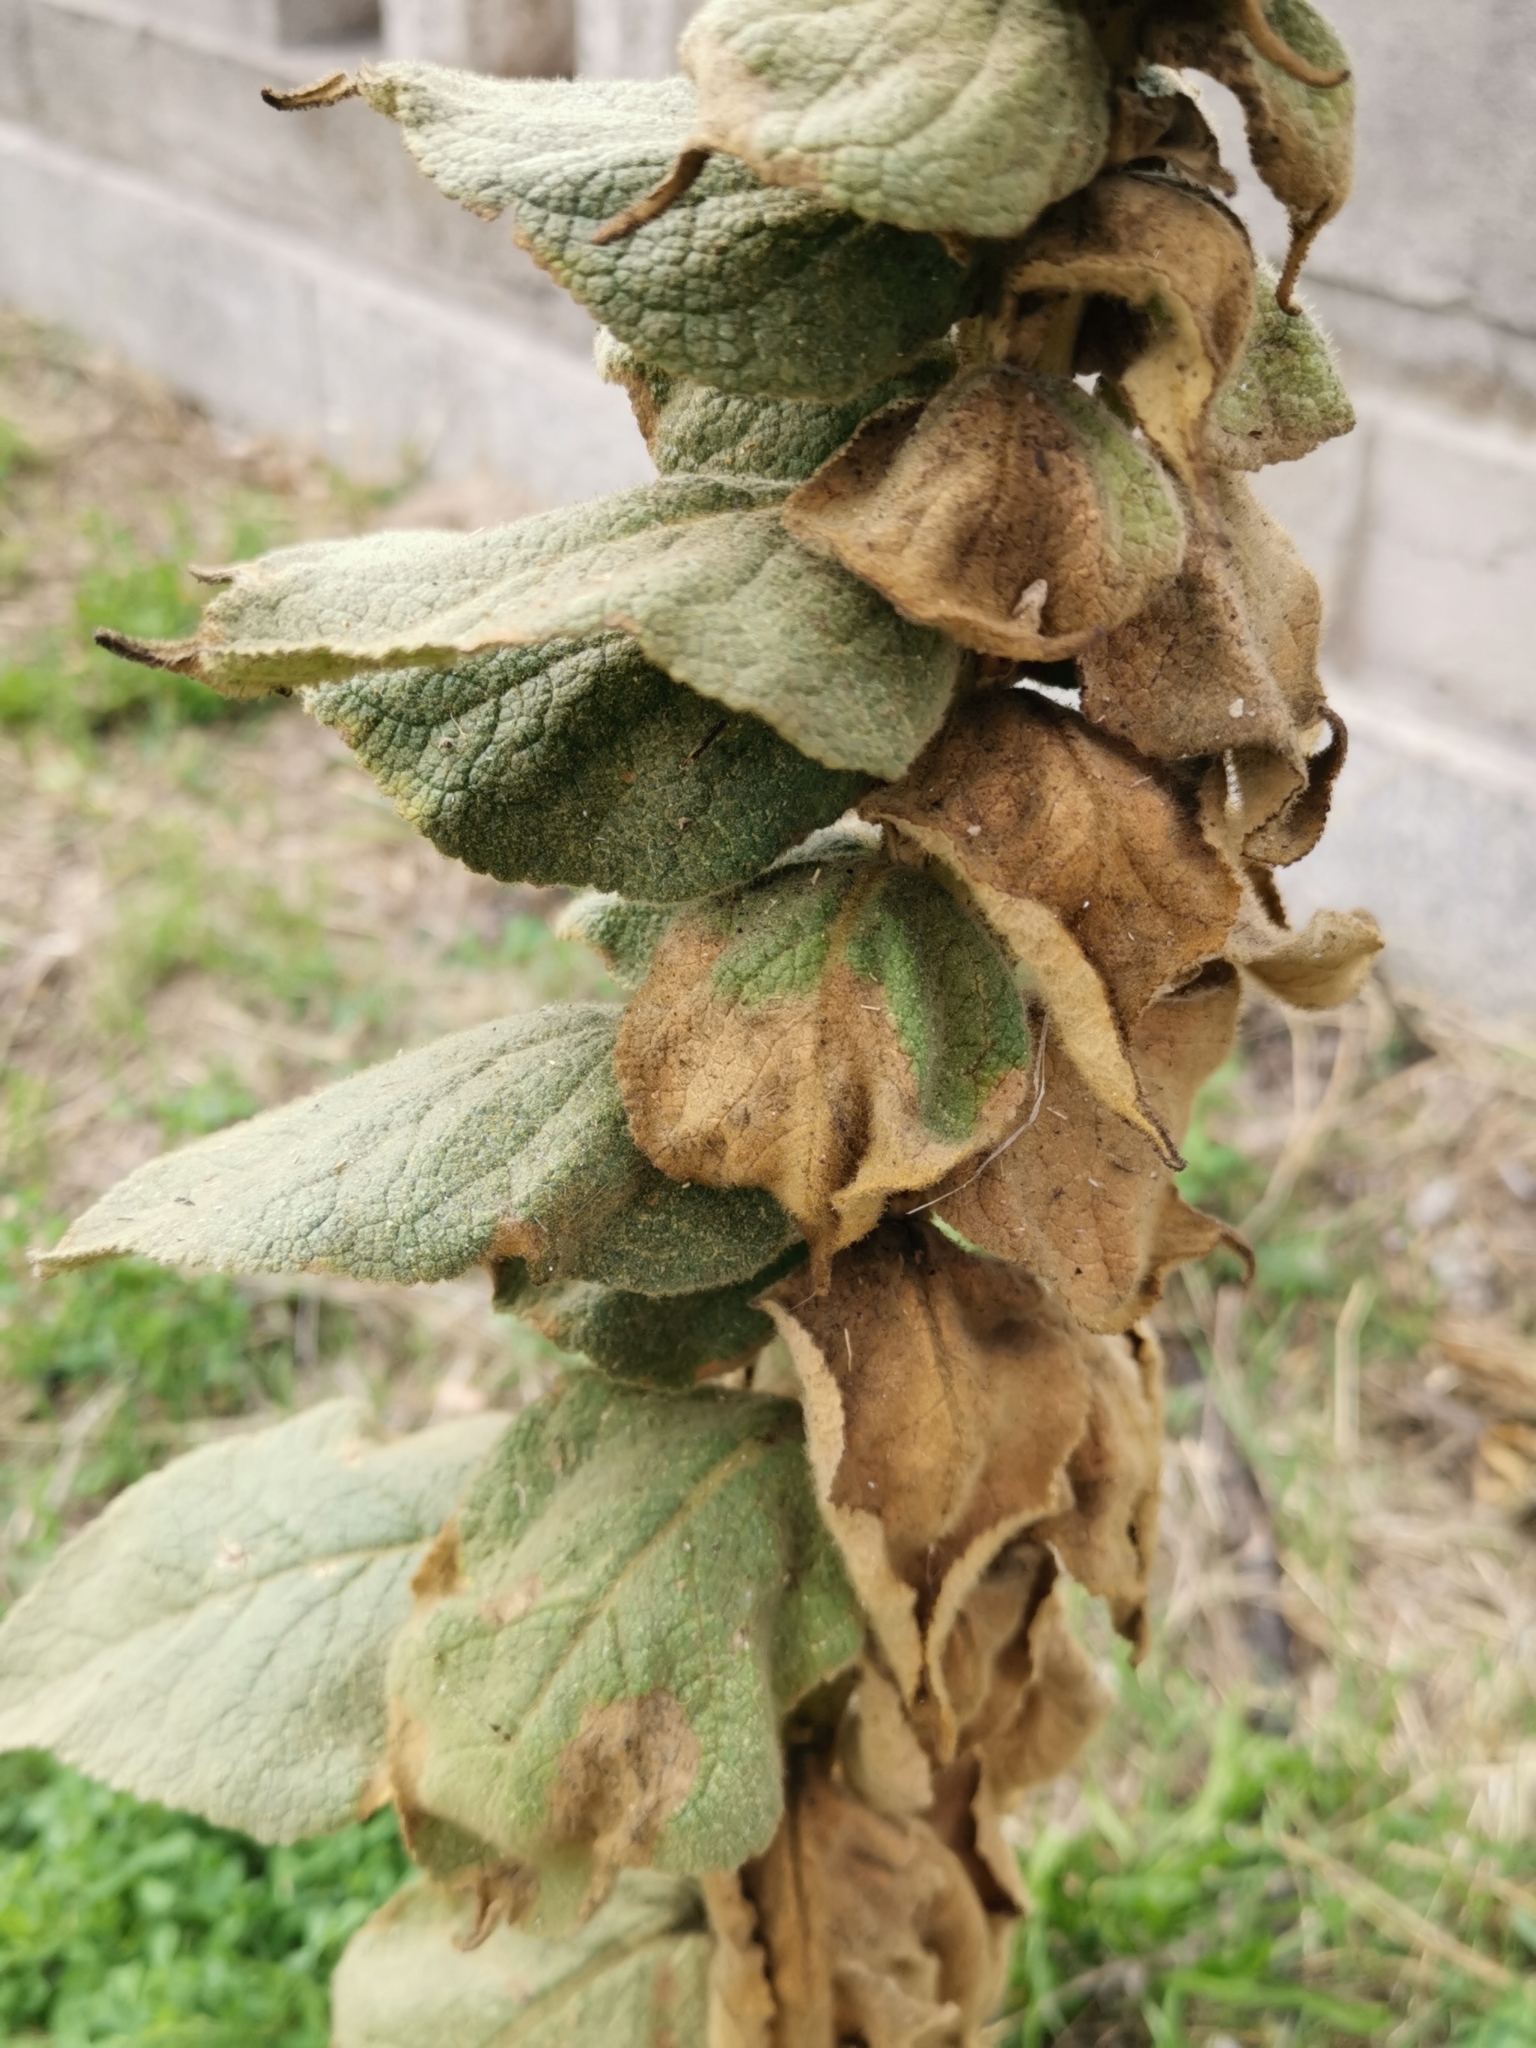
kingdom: Plantae
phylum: Tracheophyta
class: Magnoliopsida
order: Lamiales
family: Scrophulariaceae
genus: Verbascum
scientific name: Verbascum phlomoides
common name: Orange mullein
